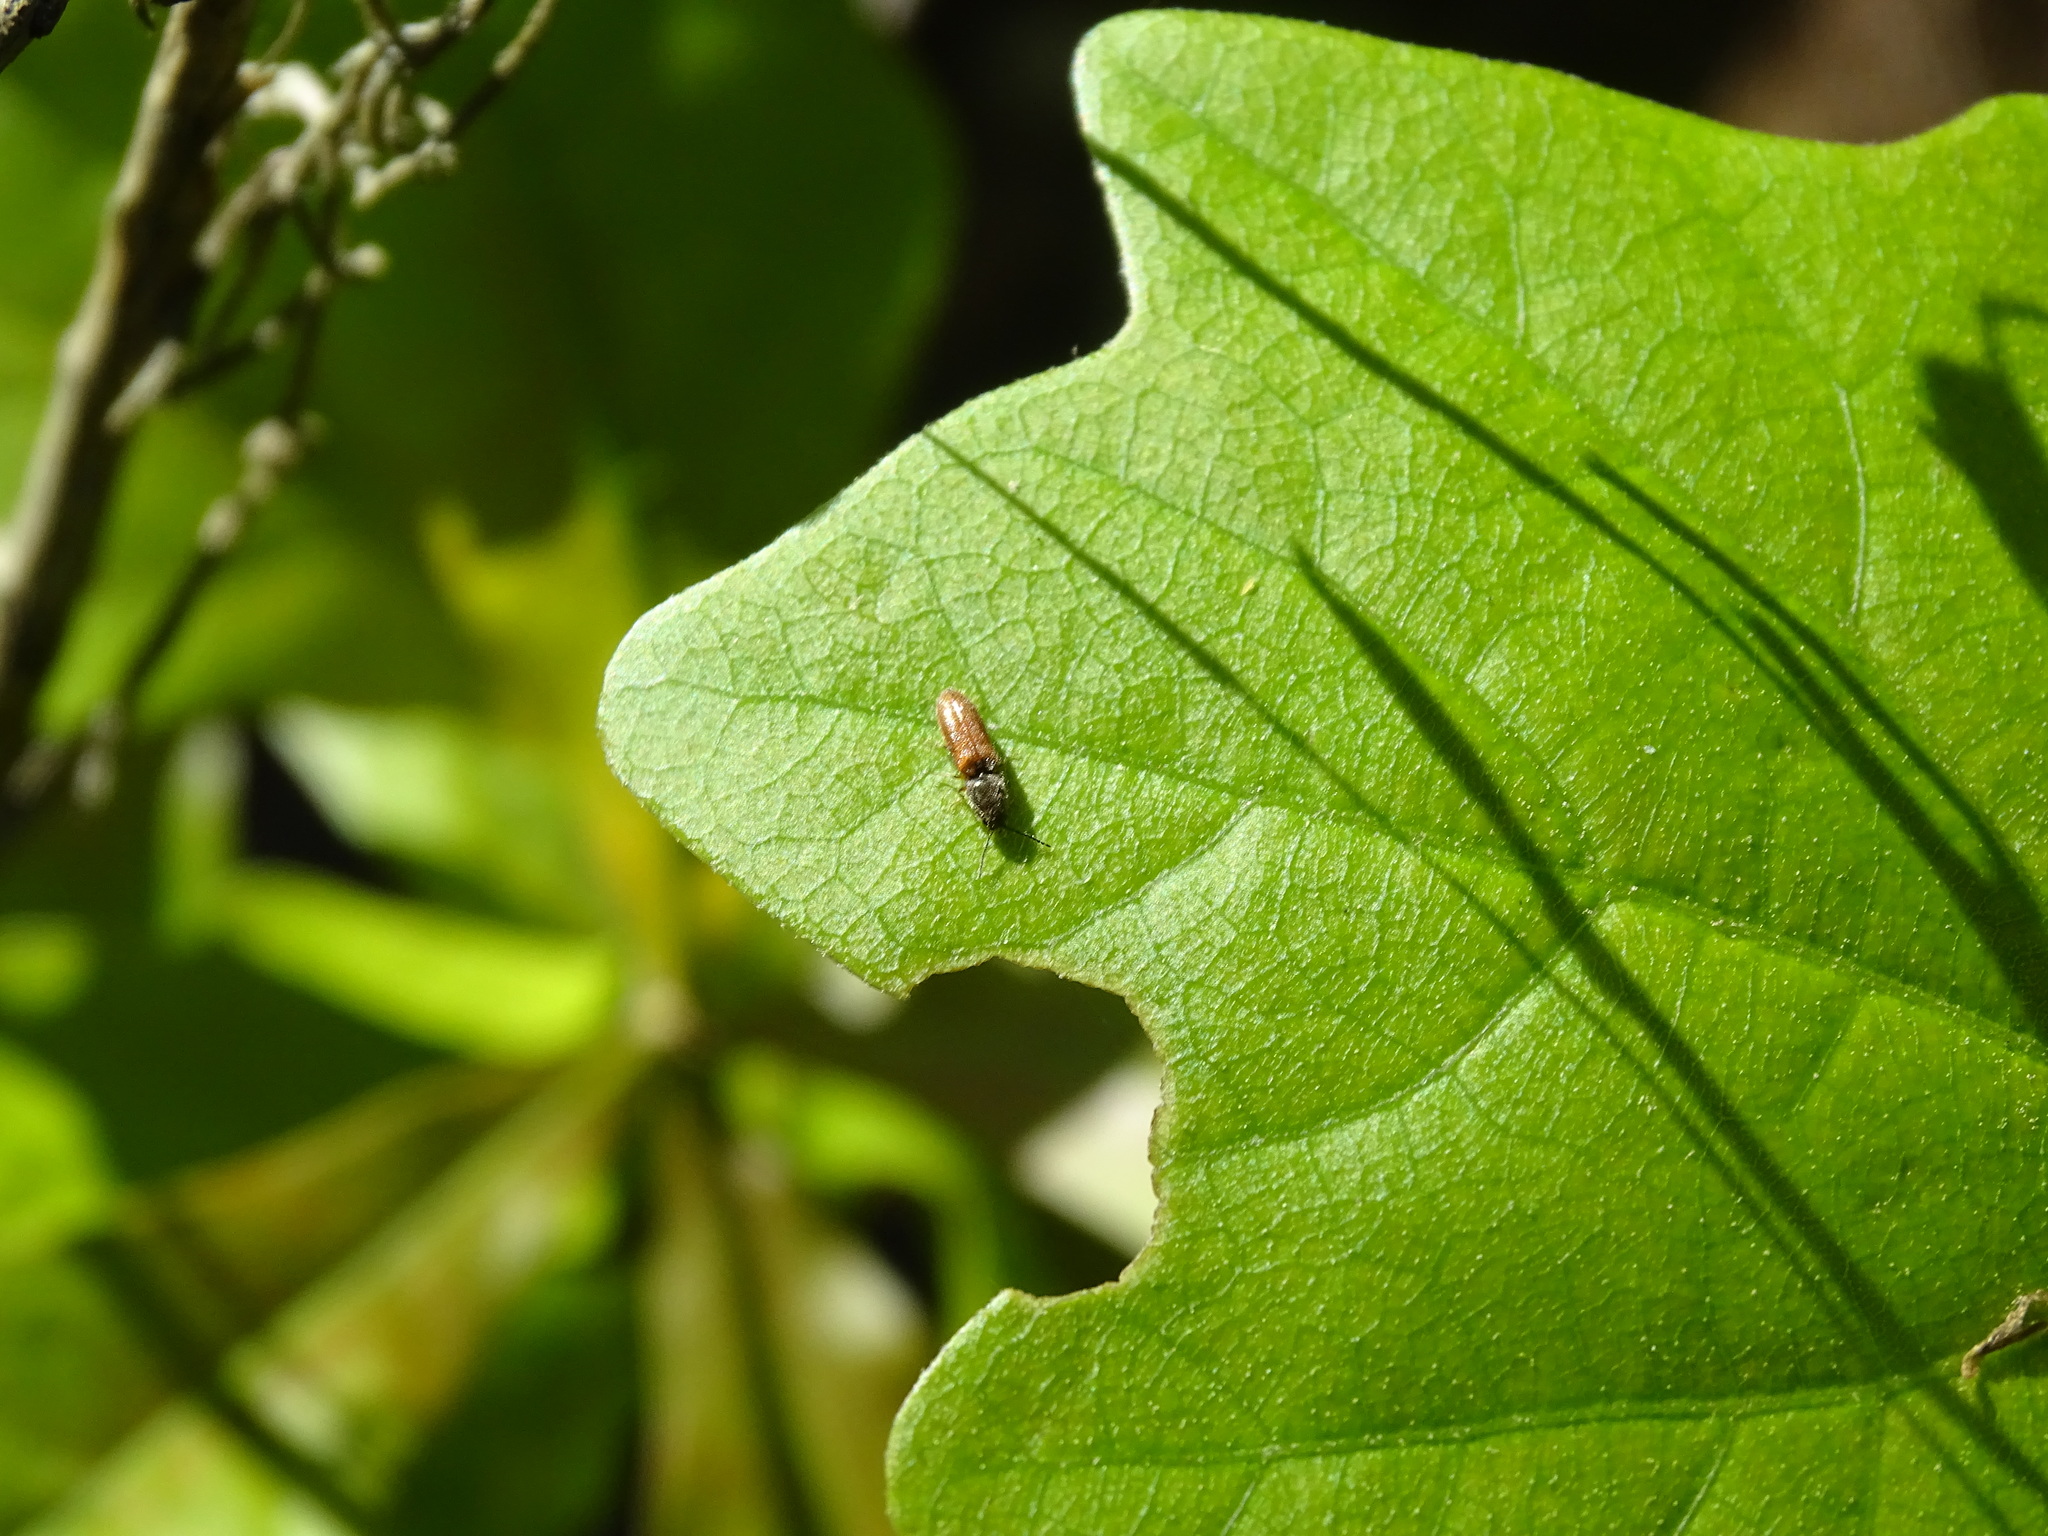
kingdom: Animalia
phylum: Arthropoda
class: Insecta
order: Coleoptera
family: Elateridae
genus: Limonius
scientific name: Limonius
